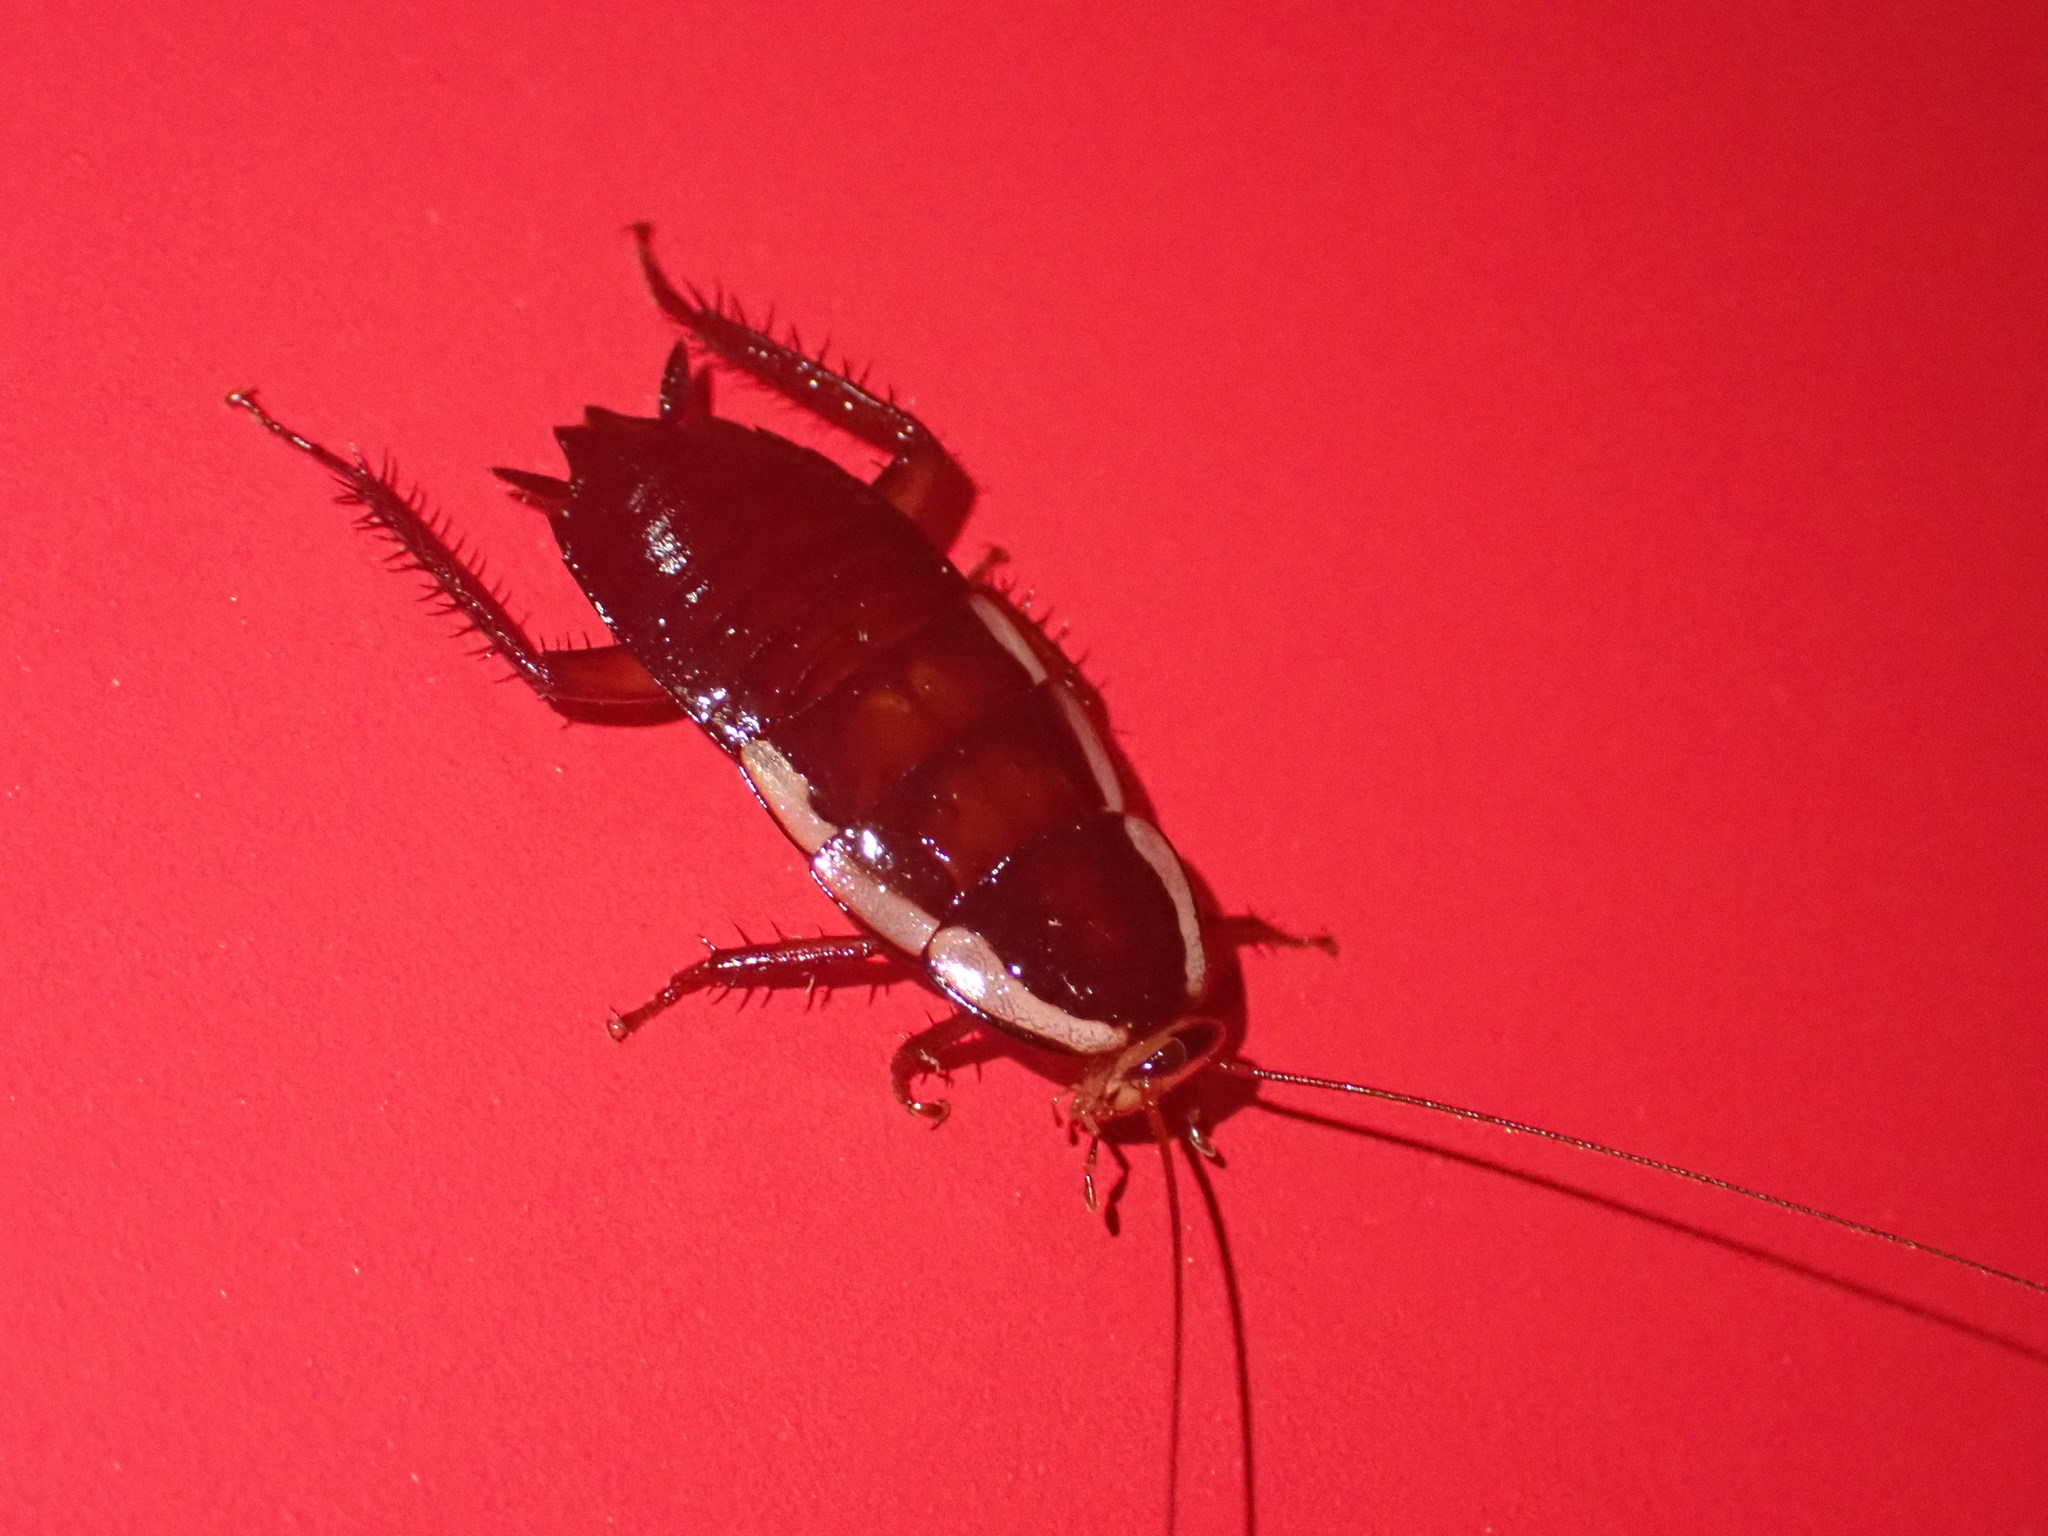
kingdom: Animalia
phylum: Arthropoda
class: Insecta
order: Blattodea
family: Blattidae
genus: Drymaplaneta
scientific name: Drymaplaneta semivitta
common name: Gisborne cockroach
